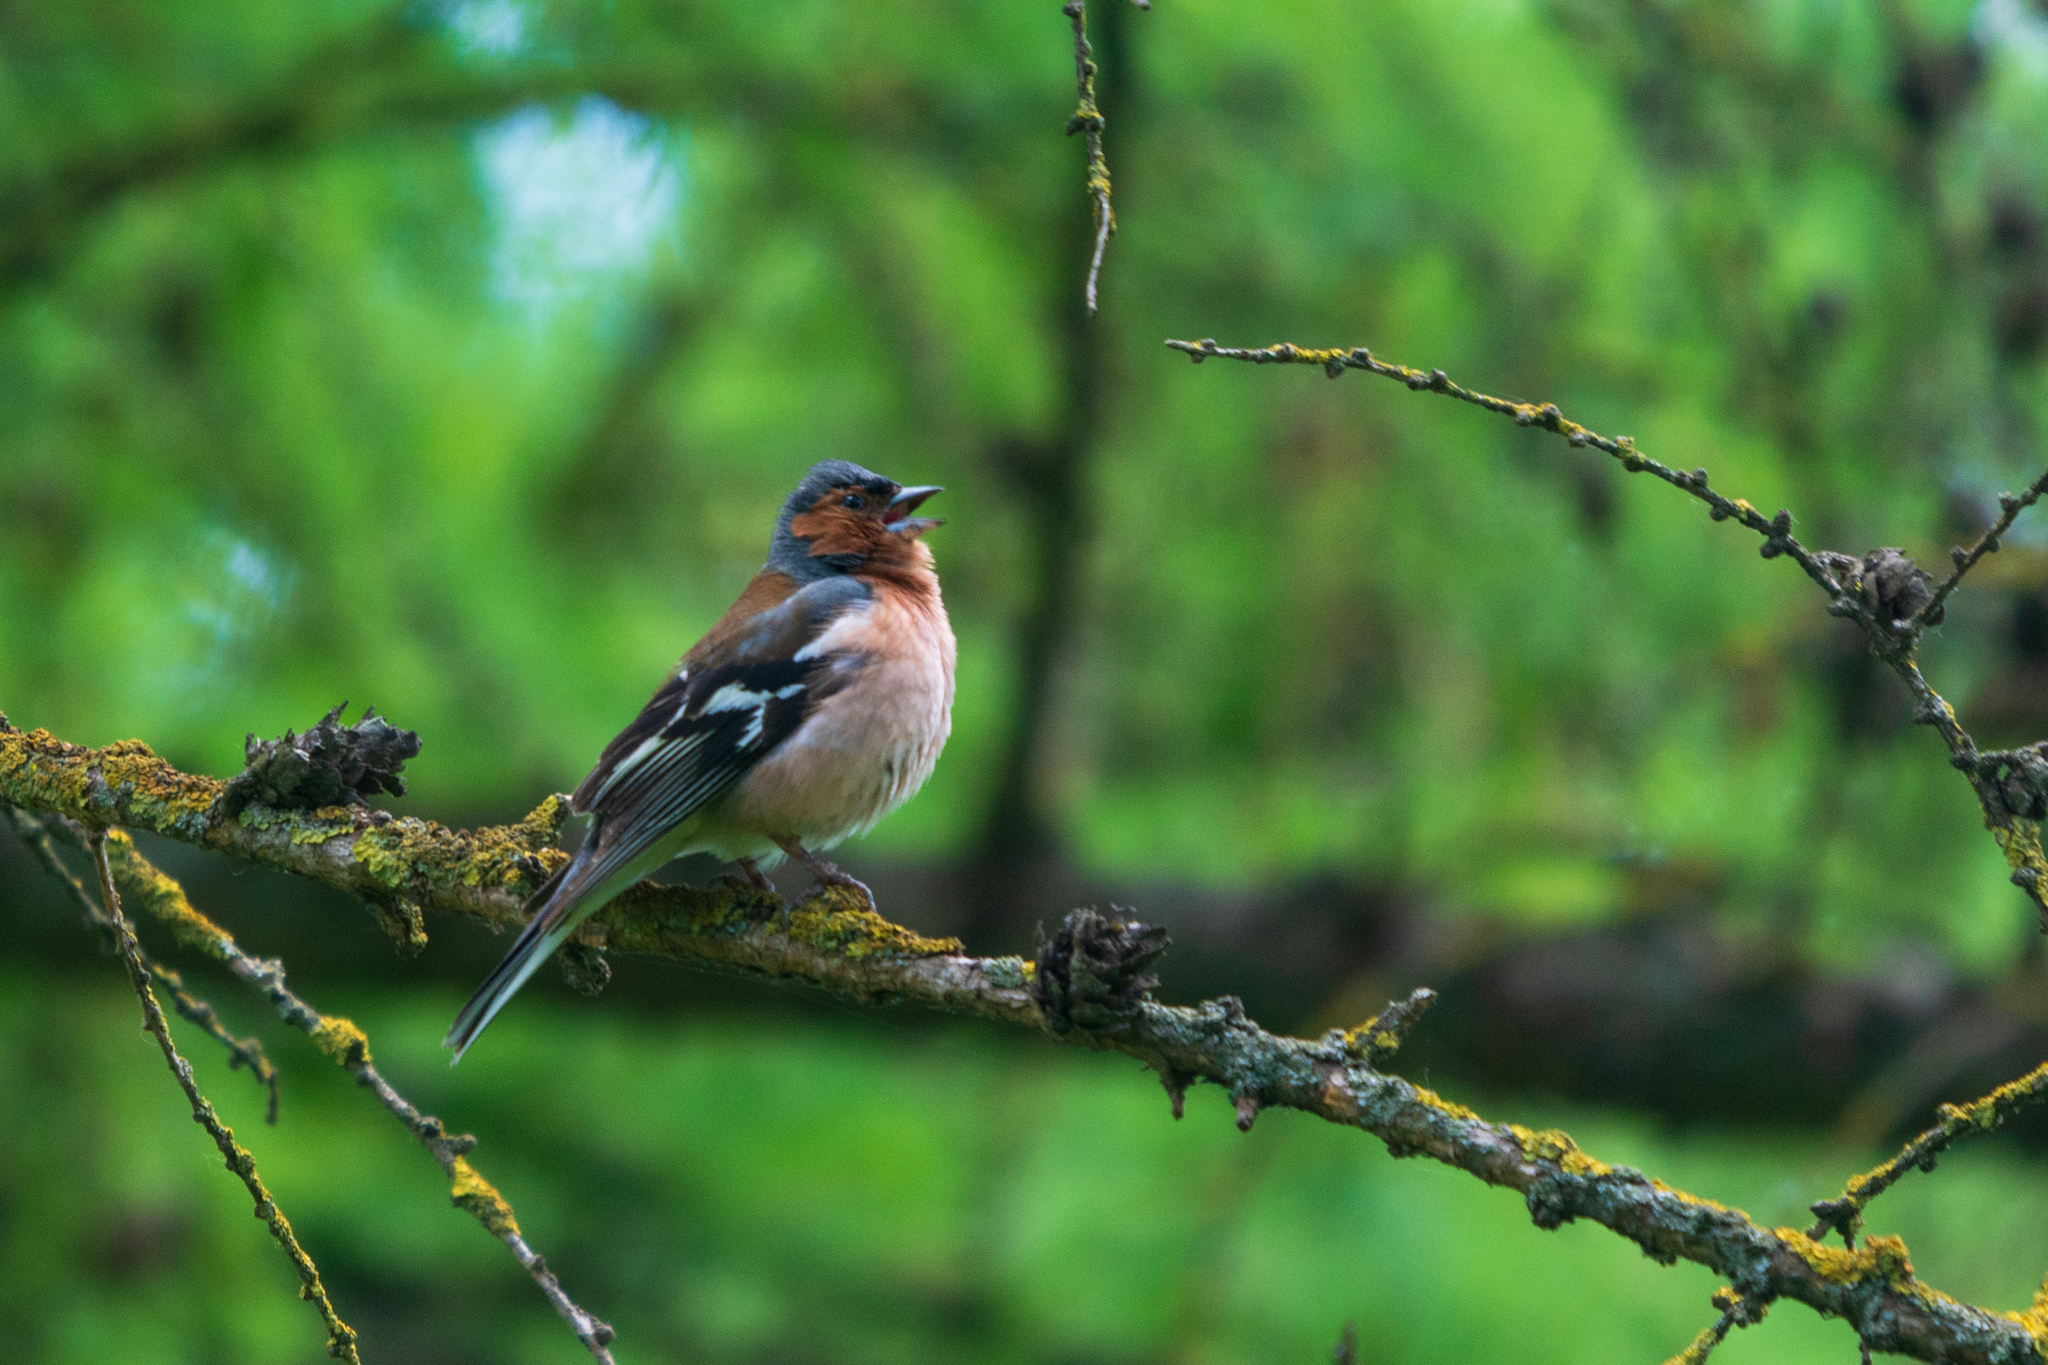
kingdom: Animalia
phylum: Chordata
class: Aves
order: Passeriformes
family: Fringillidae
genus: Fringilla
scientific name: Fringilla coelebs
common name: Common chaffinch
